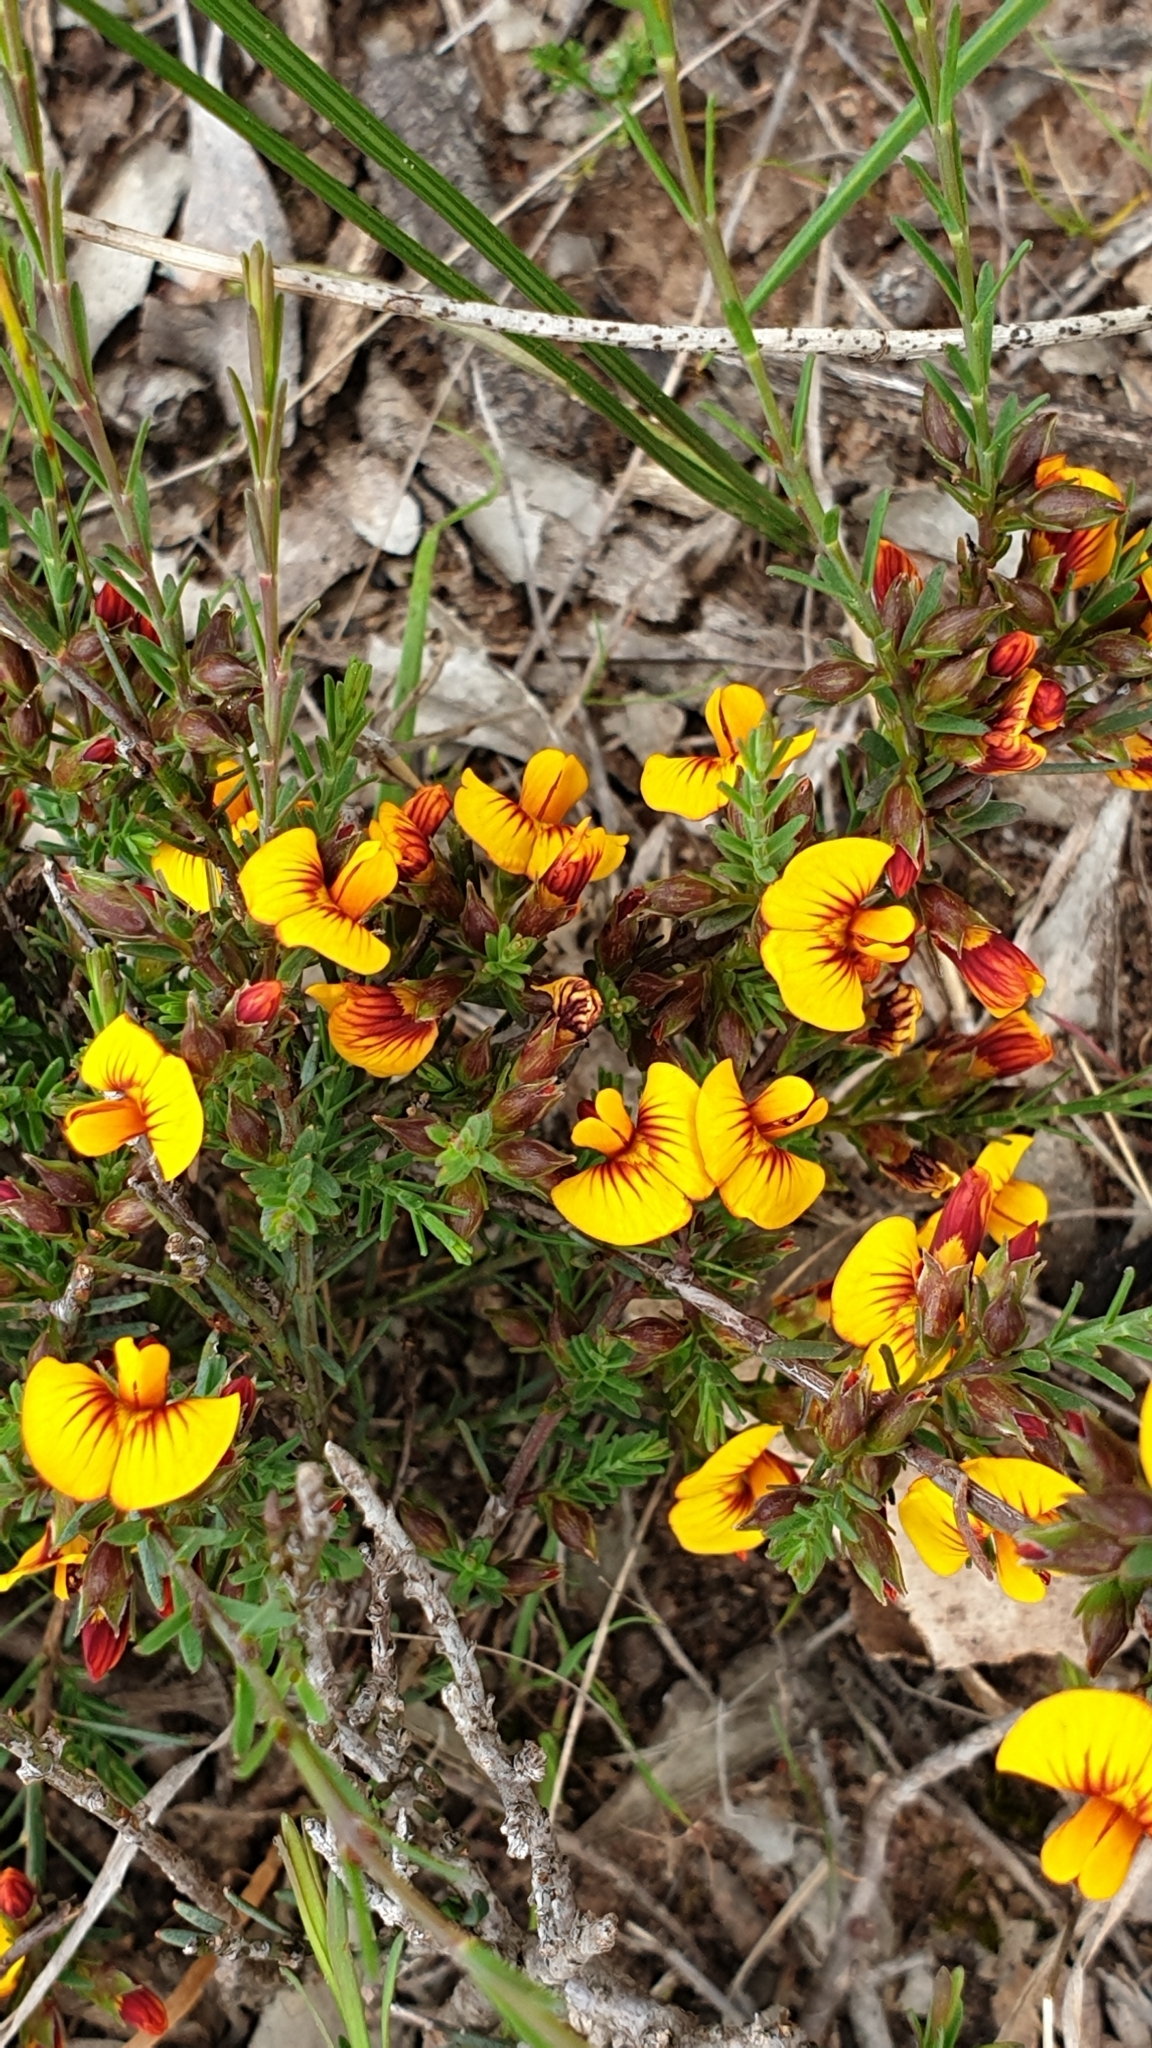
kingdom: Plantae
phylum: Tracheophyta
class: Magnoliopsida
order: Fabales
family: Fabaceae
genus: Eutaxia
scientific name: Eutaxia microphylla
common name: Mallee bush-pea
